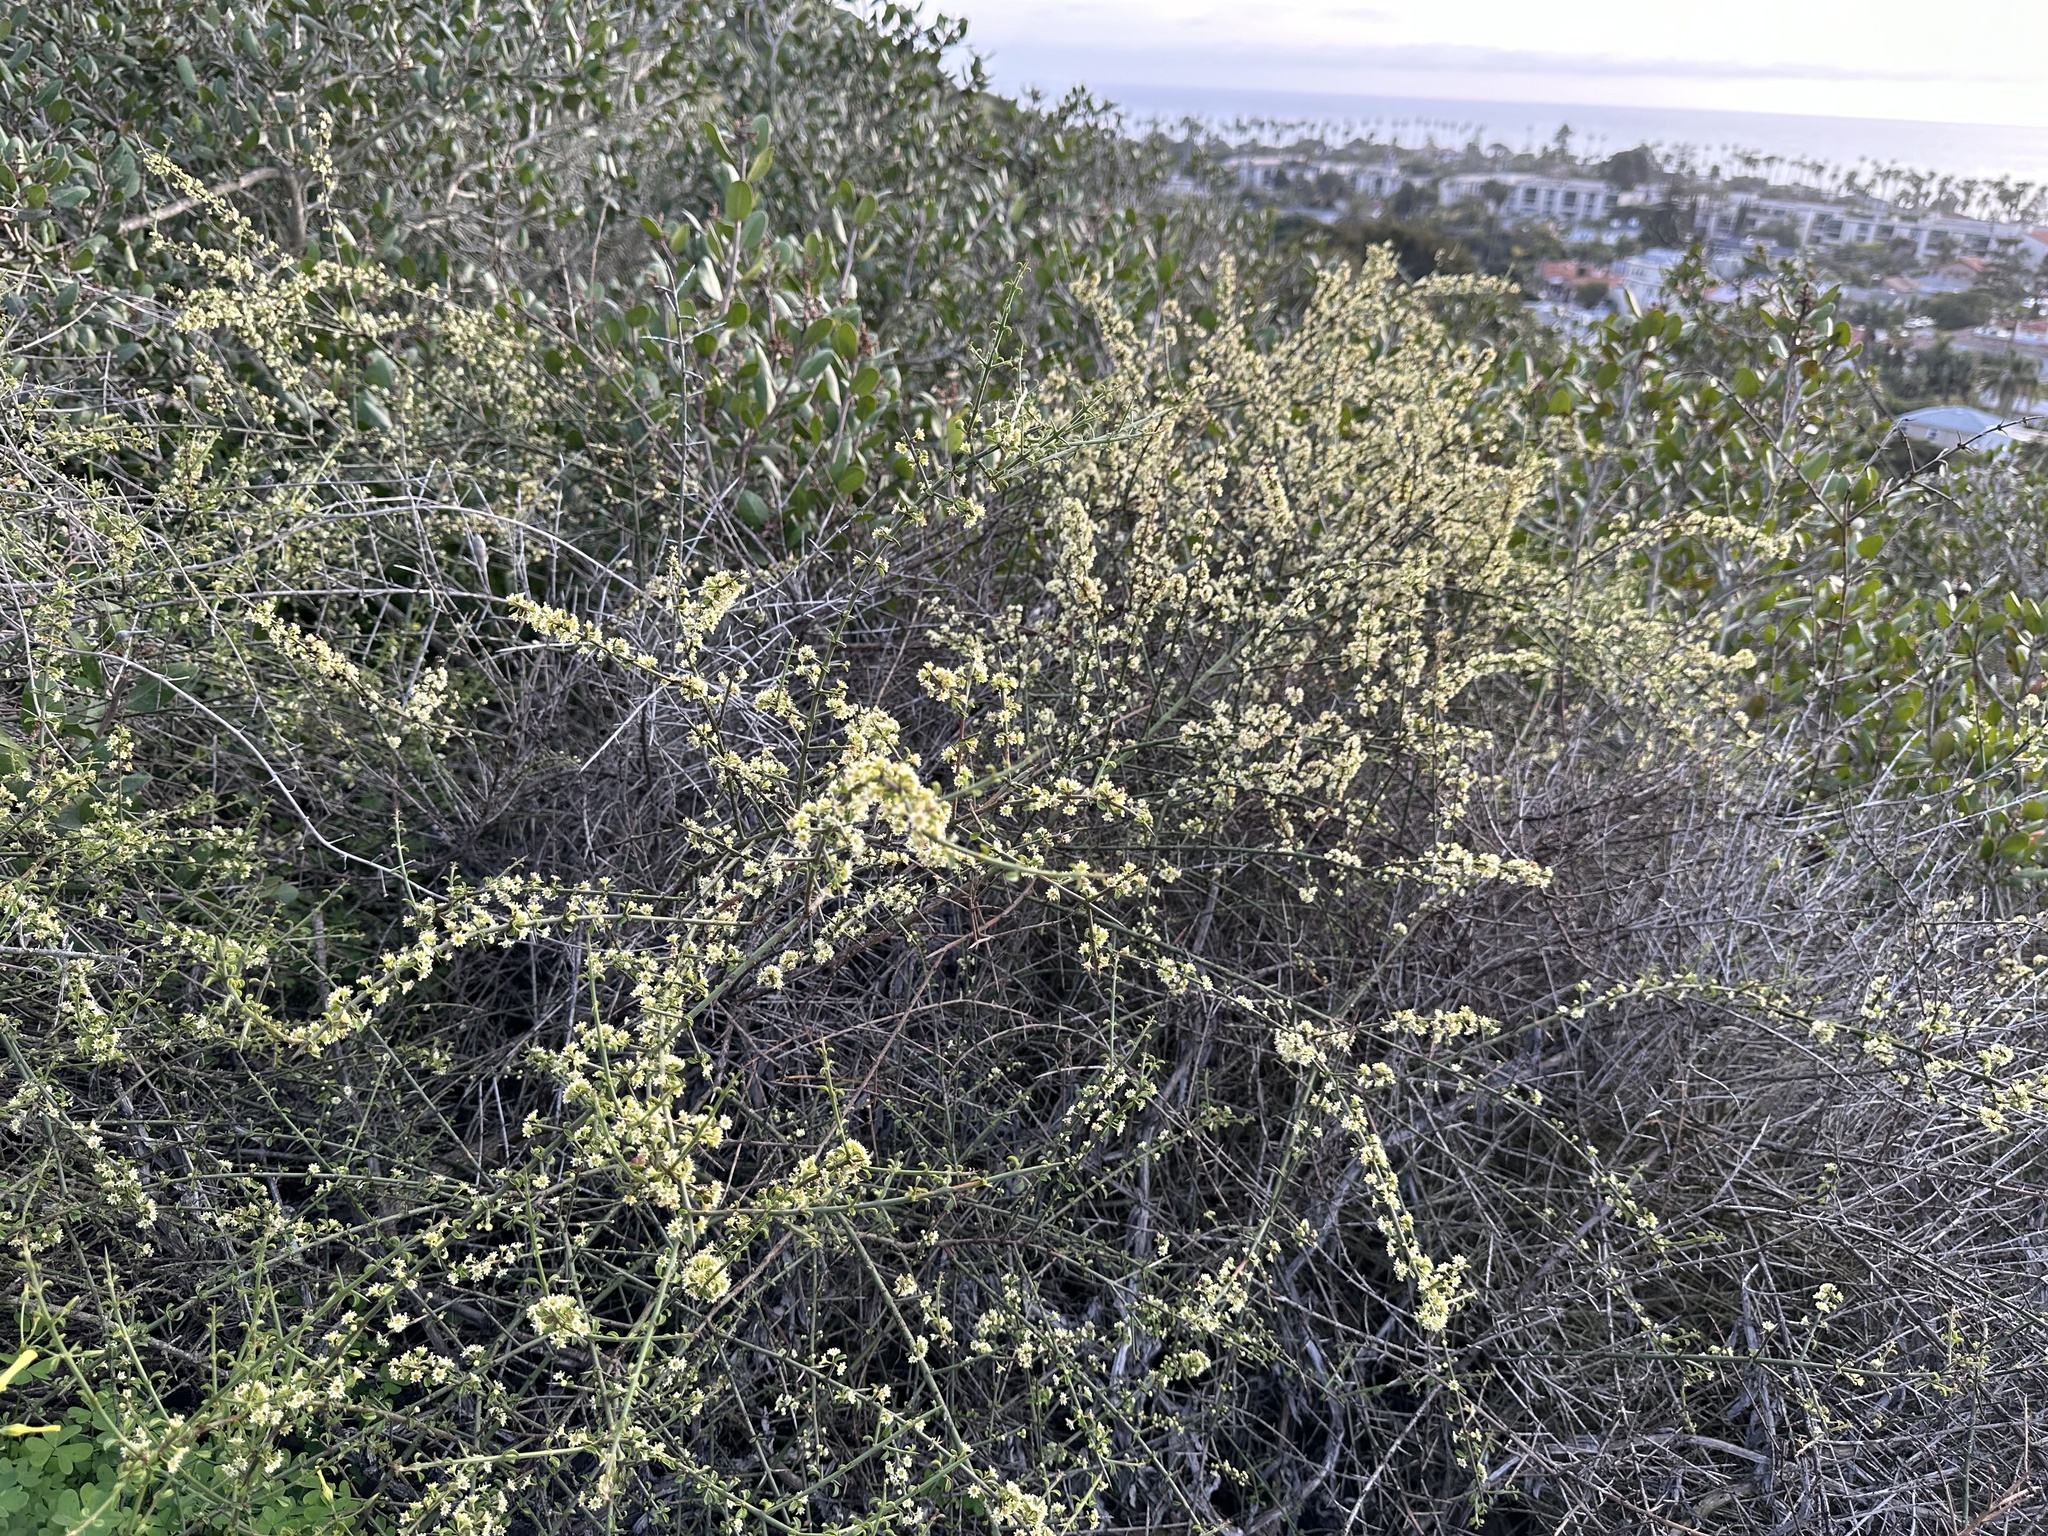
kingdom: Plantae
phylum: Tracheophyta
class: Magnoliopsida
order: Rosales
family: Rhamnaceae
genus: Adolphia
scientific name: Adolphia californica
